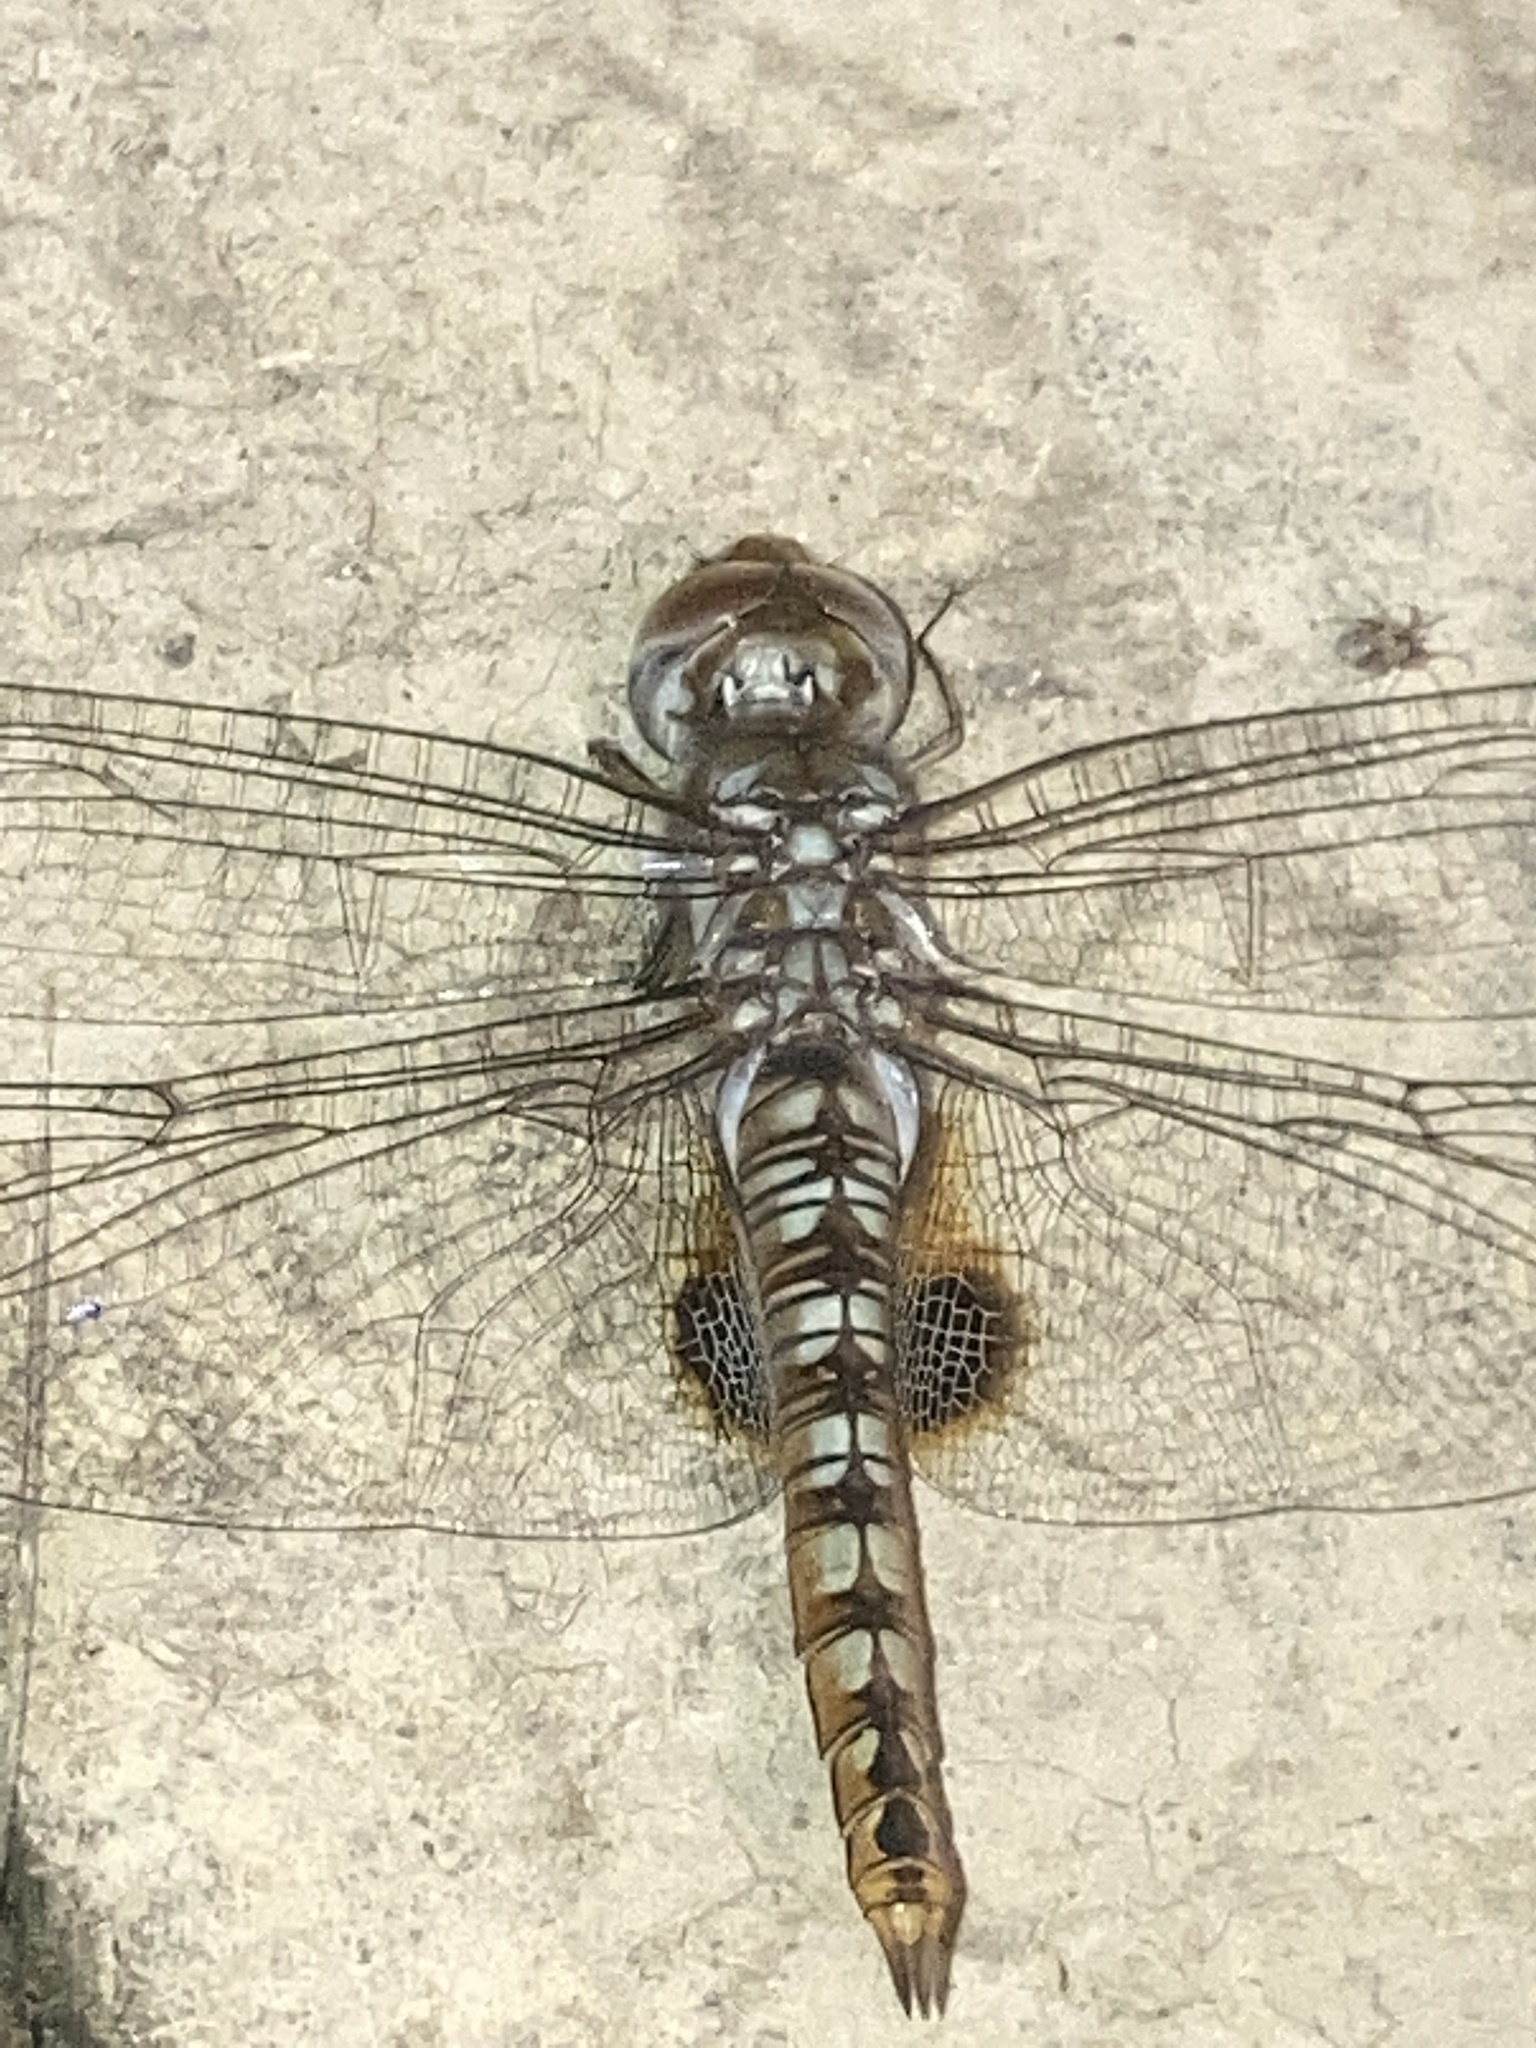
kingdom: Animalia
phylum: Arthropoda
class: Insecta
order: Odonata
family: Libellulidae
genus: Pantala
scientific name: Pantala hymenaea
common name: Spot-winged glider
